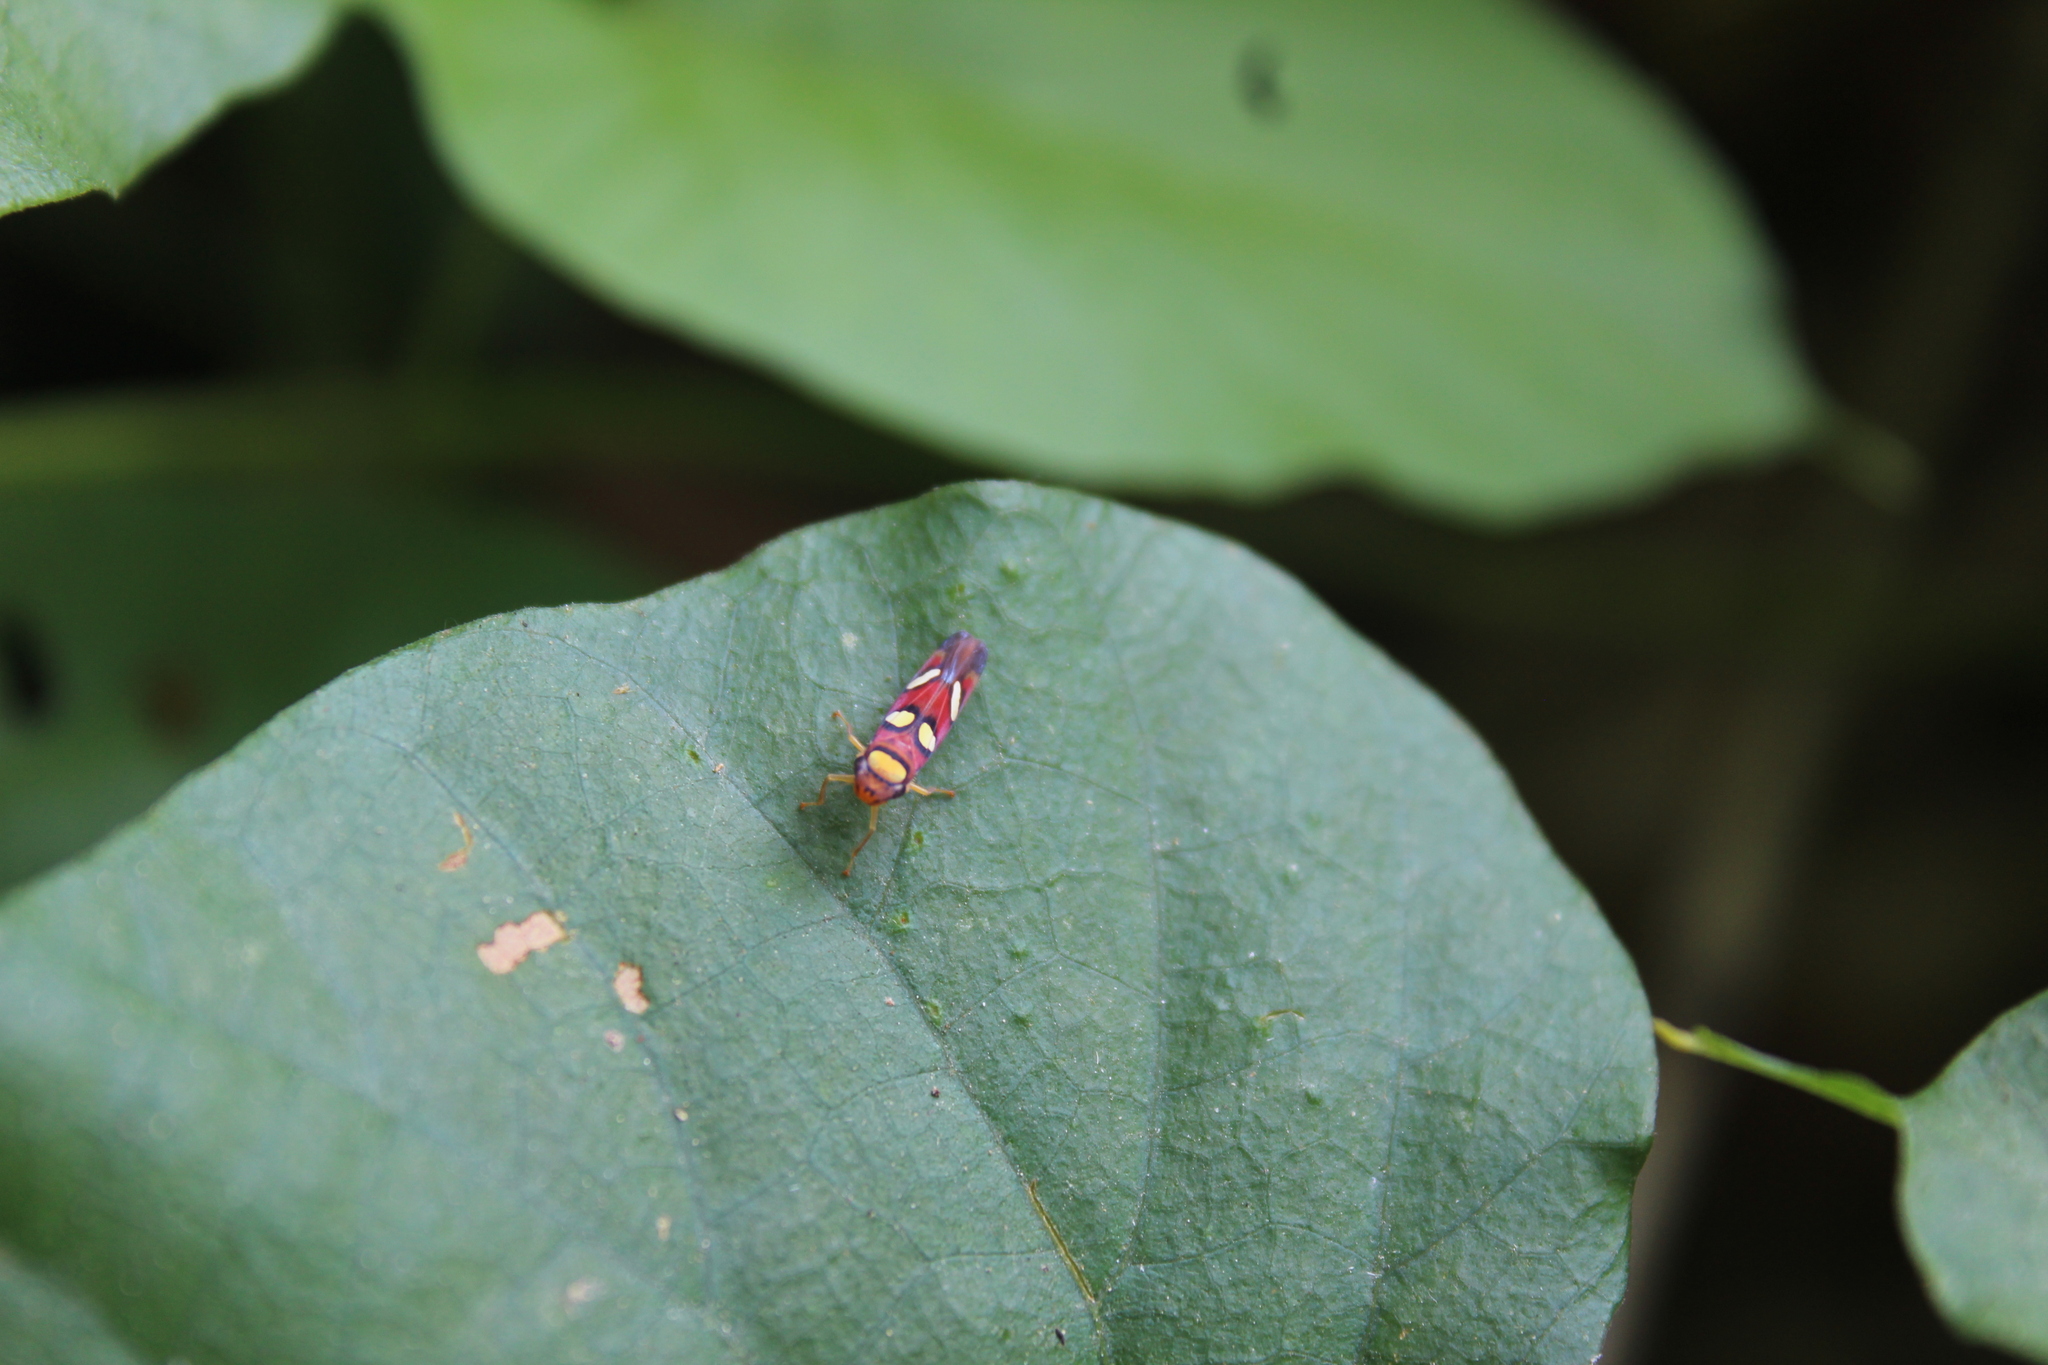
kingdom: Animalia
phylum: Arthropoda
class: Insecta
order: Hemiptera
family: Cicadellidae
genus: Erythrogonia
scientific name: Erythrogonia areolata
